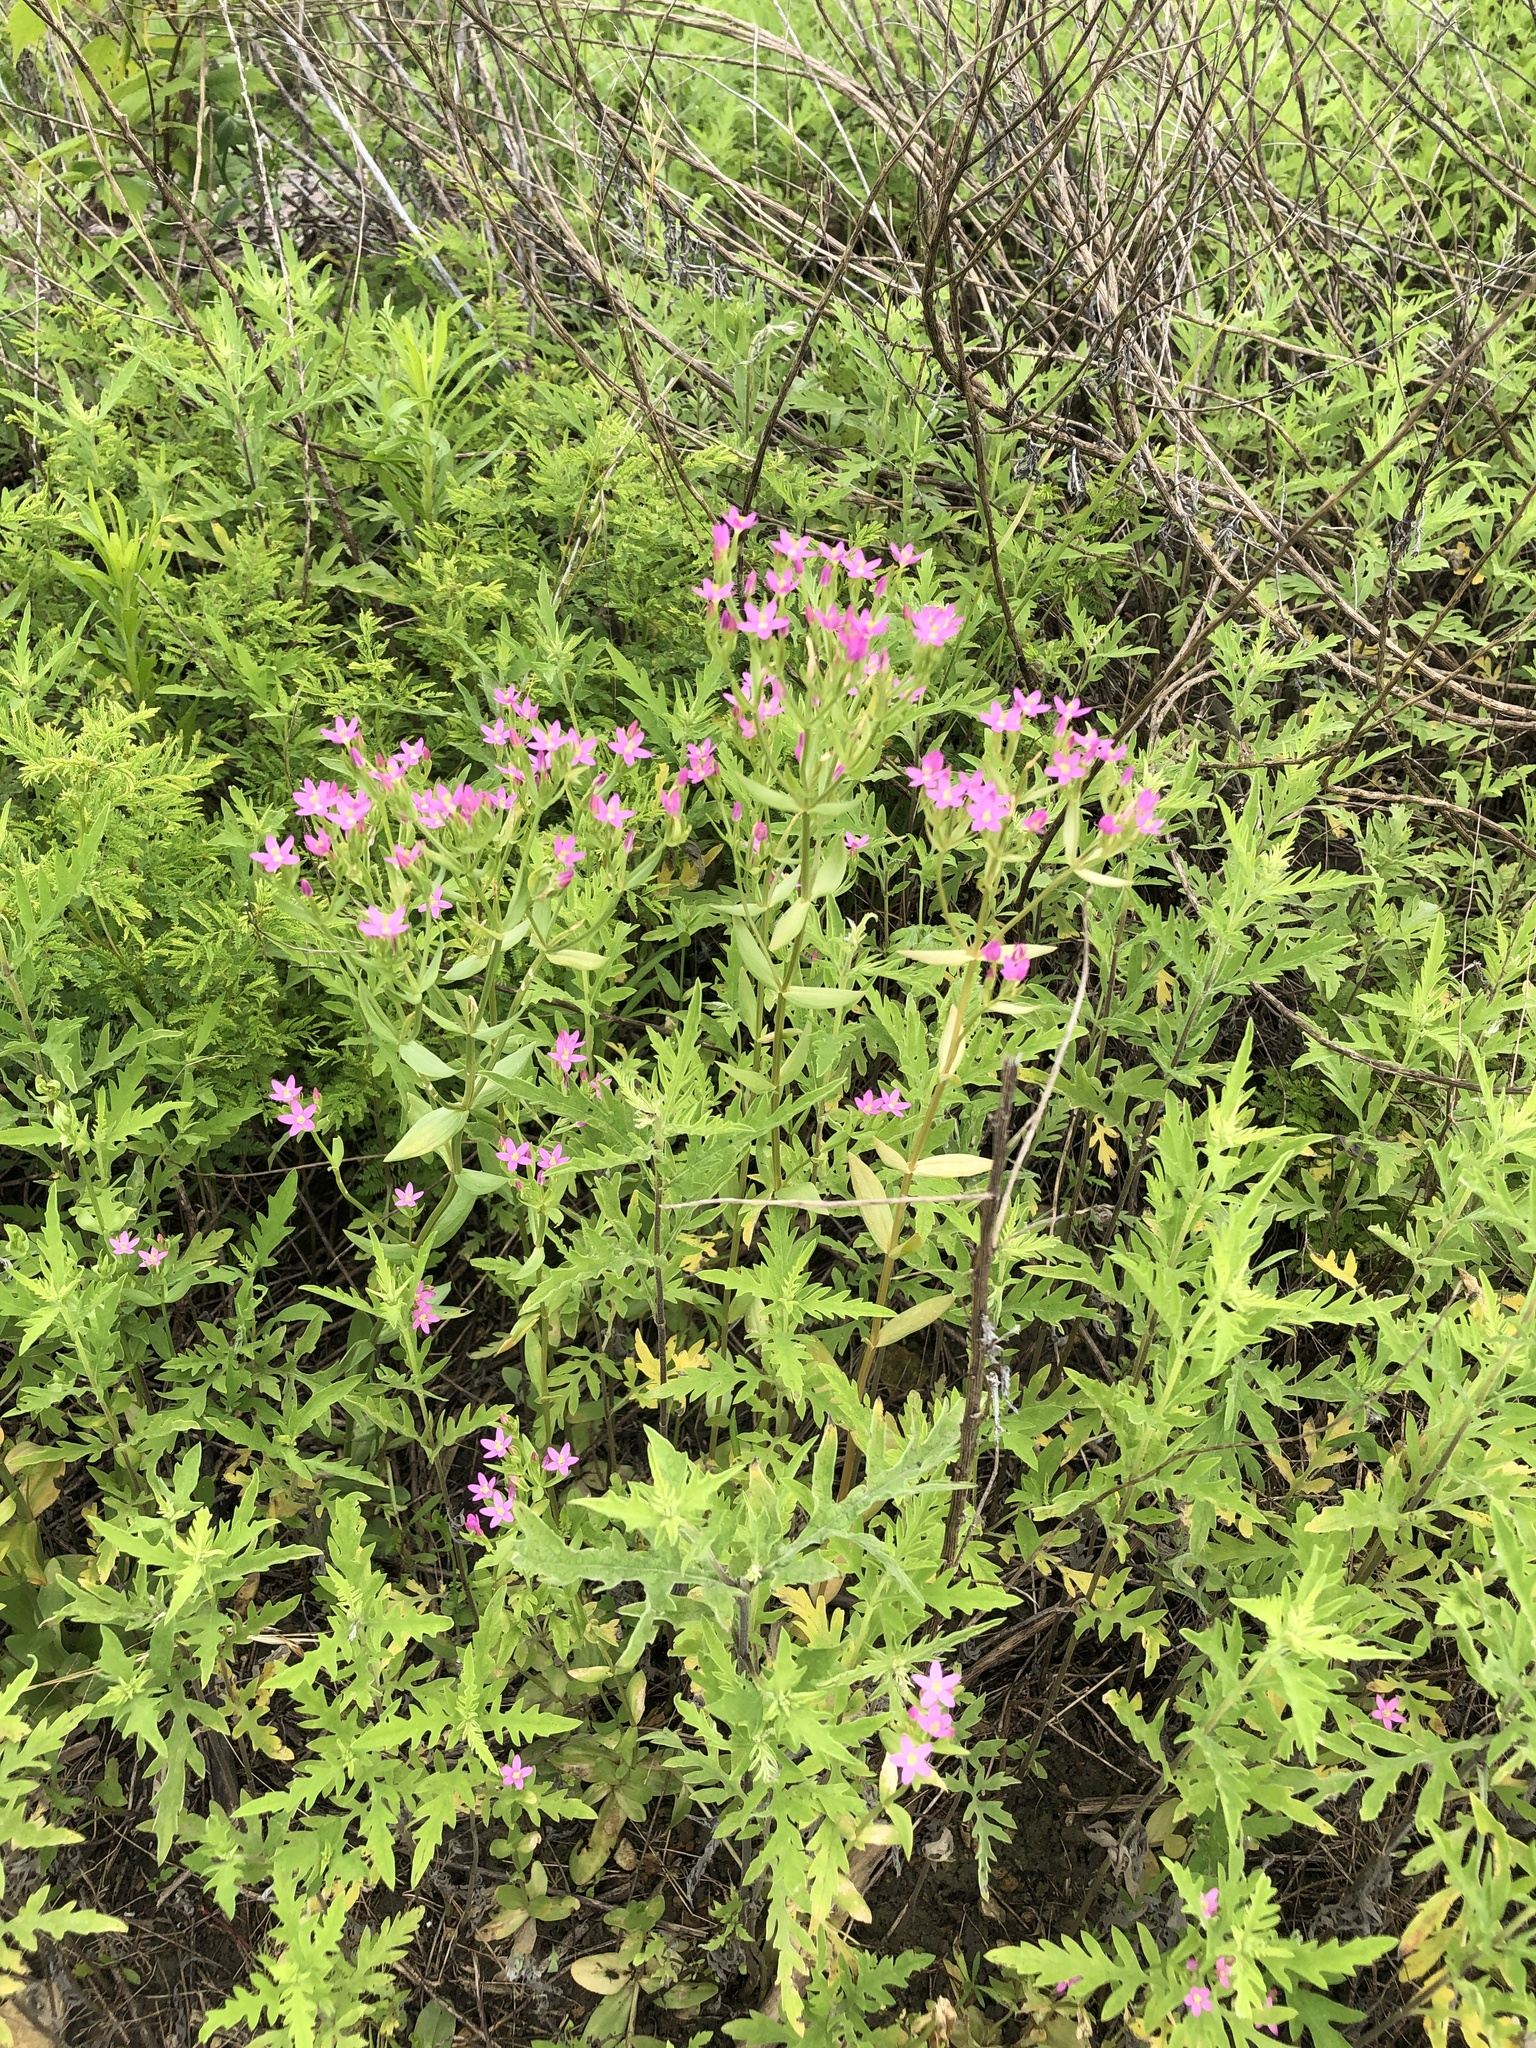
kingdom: Plantae
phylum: Tracheophyta
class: Magnoliopsida
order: Gentianales
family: Gentianaceae
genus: Centaurium
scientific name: Centaurium tenuiflorum
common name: Slender centaury
